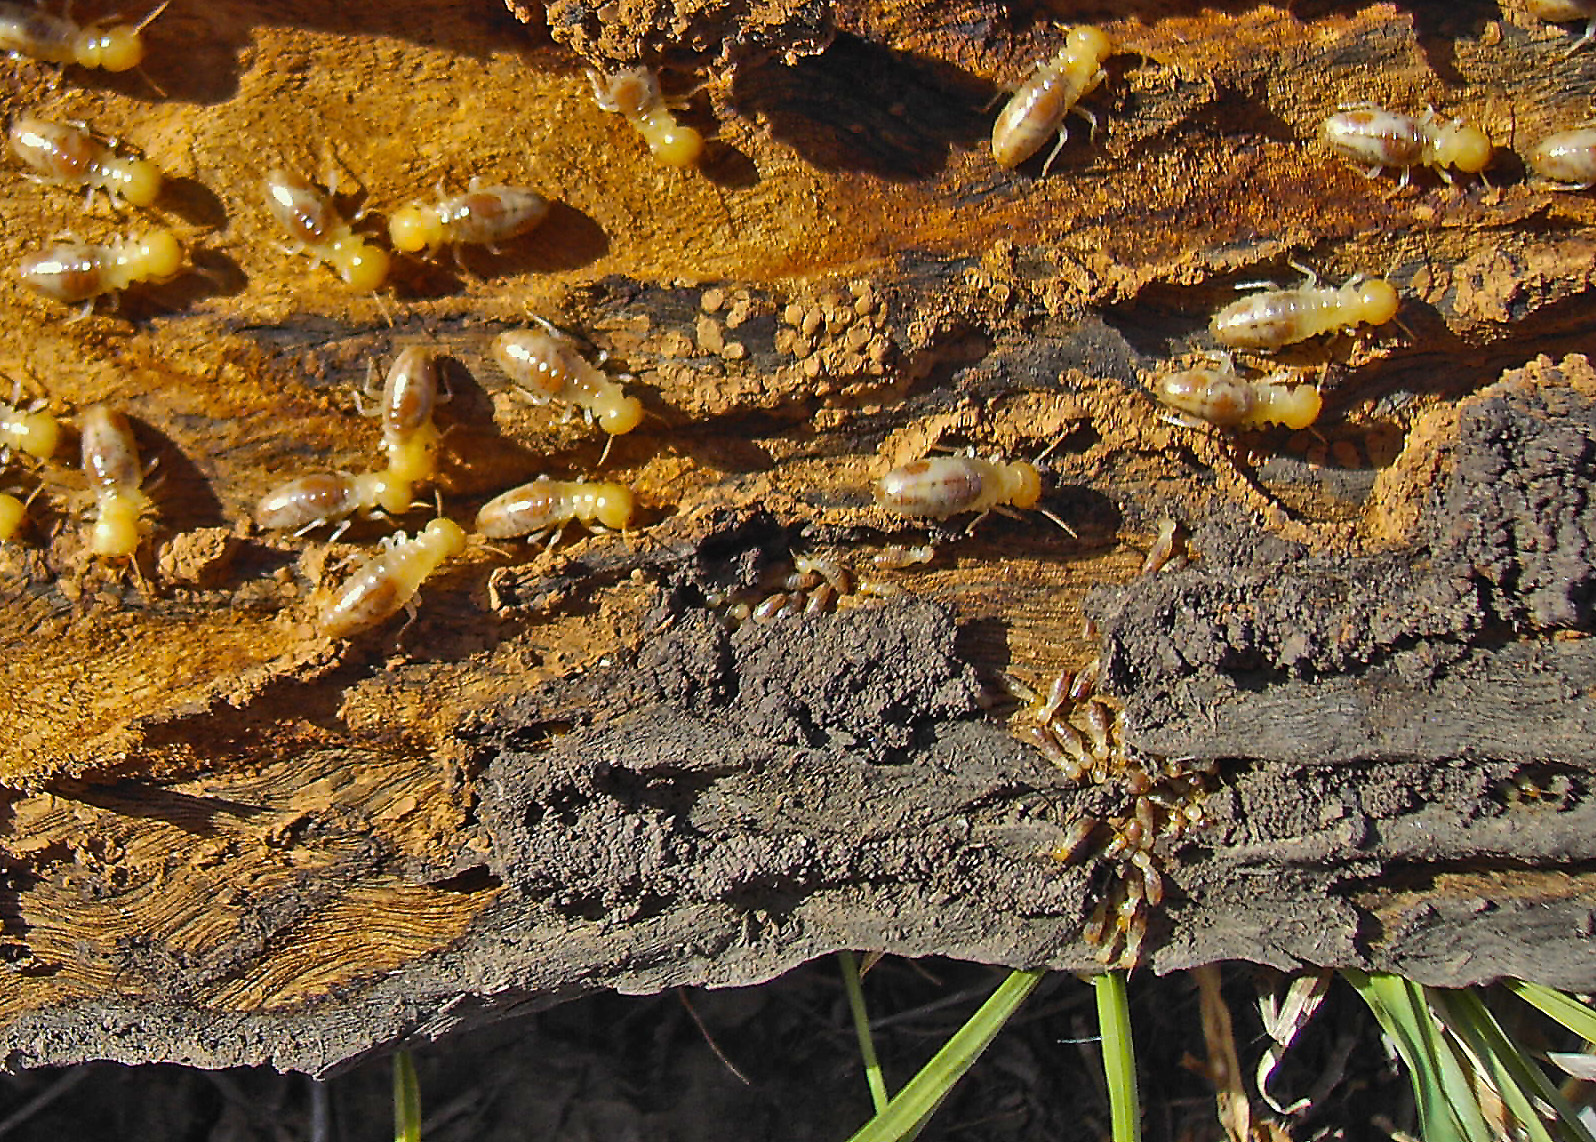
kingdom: Animalia
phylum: Arthropoda
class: Insecta
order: Blattodea
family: Mastotermitidae
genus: Mastotermes
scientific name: Mastotermes darwiniensis
